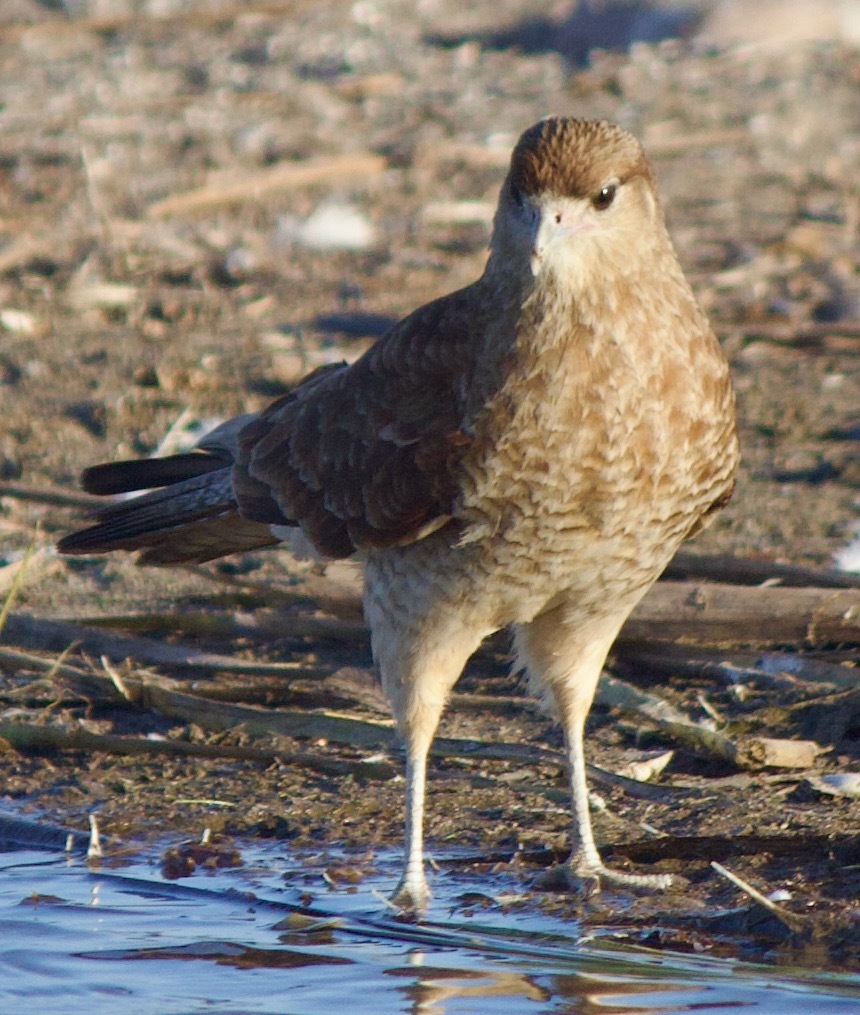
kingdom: Animalia
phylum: Chordata
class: Aves
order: Falconiformes
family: Falconidae
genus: Daptrius
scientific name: Daptrius
